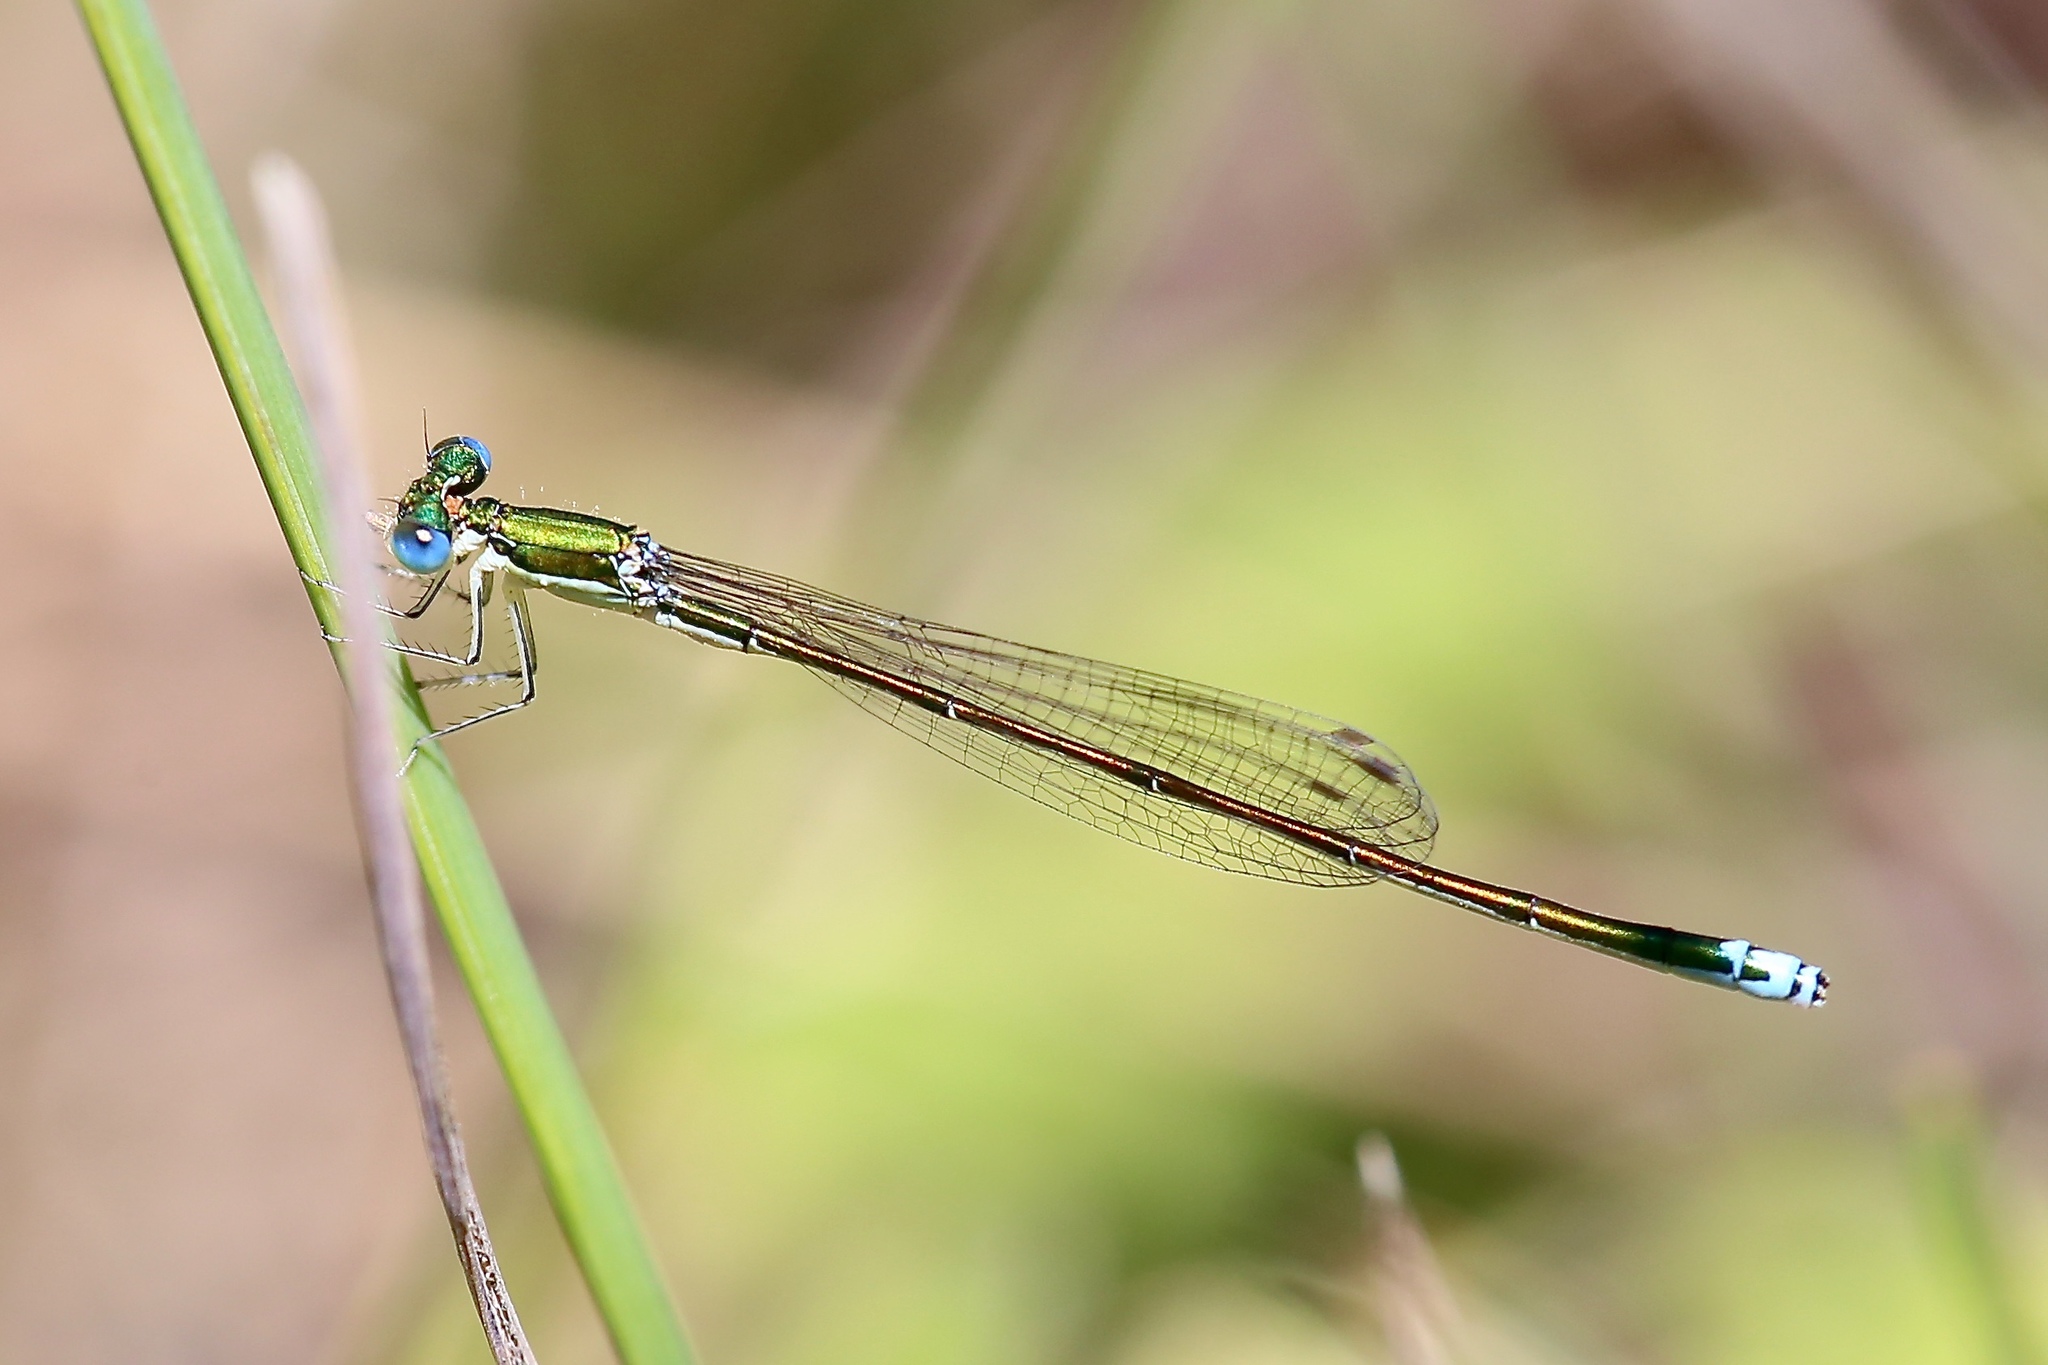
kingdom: Animalia
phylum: Arthropoda
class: Insecta
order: Odonata
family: Coenagrionidae
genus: Nehalennia
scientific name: Nehalennia irene
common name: Sedge sprite
